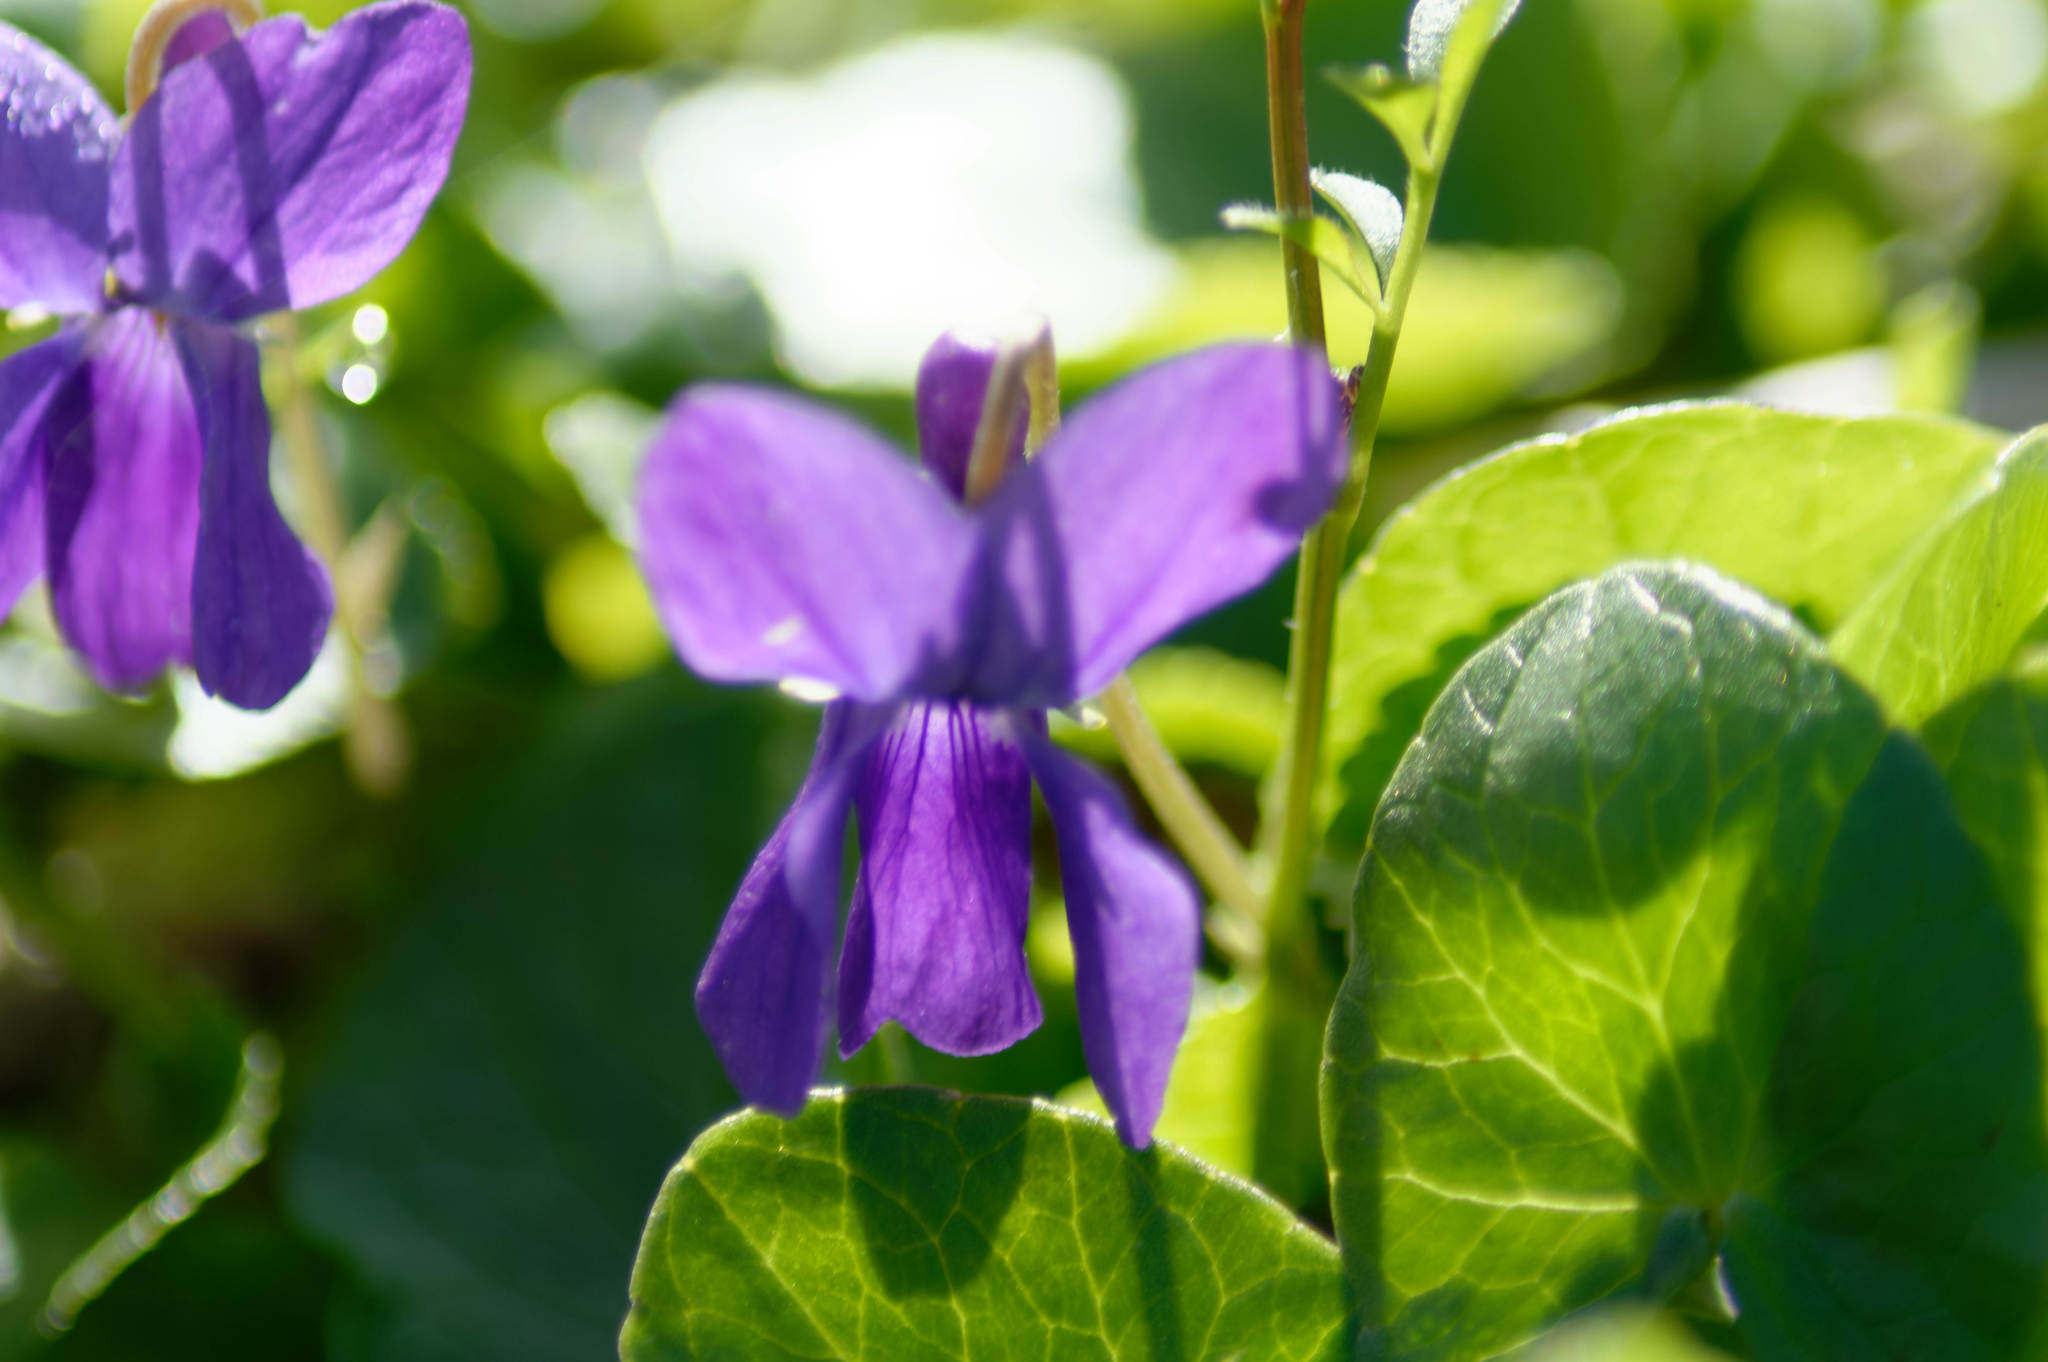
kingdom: Plantae
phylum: Tracheophyta
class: Magnoliopsida
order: Malpighiales
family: Violaceae
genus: Viola
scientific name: Viola odorata
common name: Sweet violet
